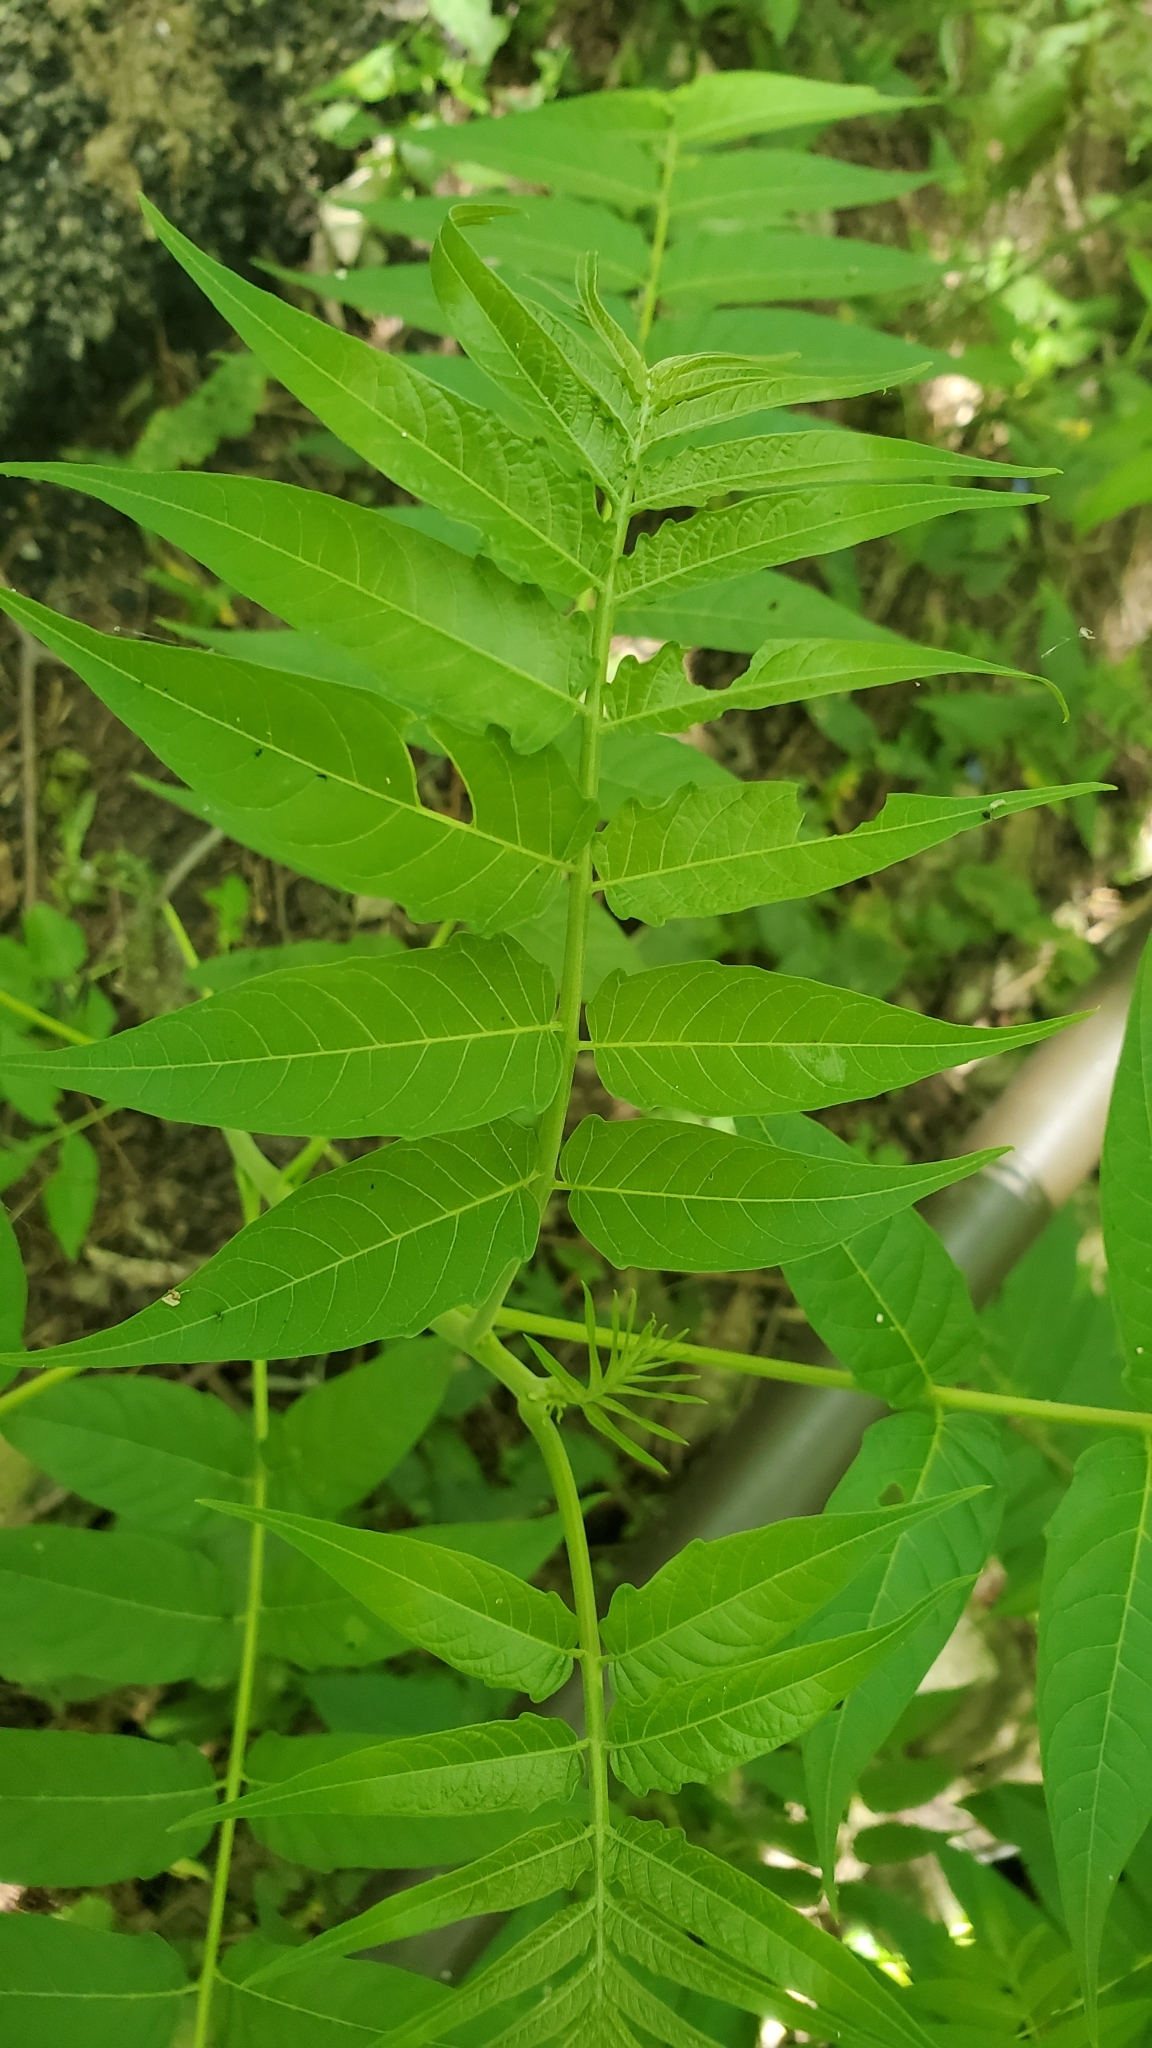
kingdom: Plantae
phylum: Tracheophyta
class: Magnoliopsida
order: Sapindales
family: Simaroubaceae
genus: Ailanthus
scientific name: Ailanthus altissima
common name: Tree-of-heaven
